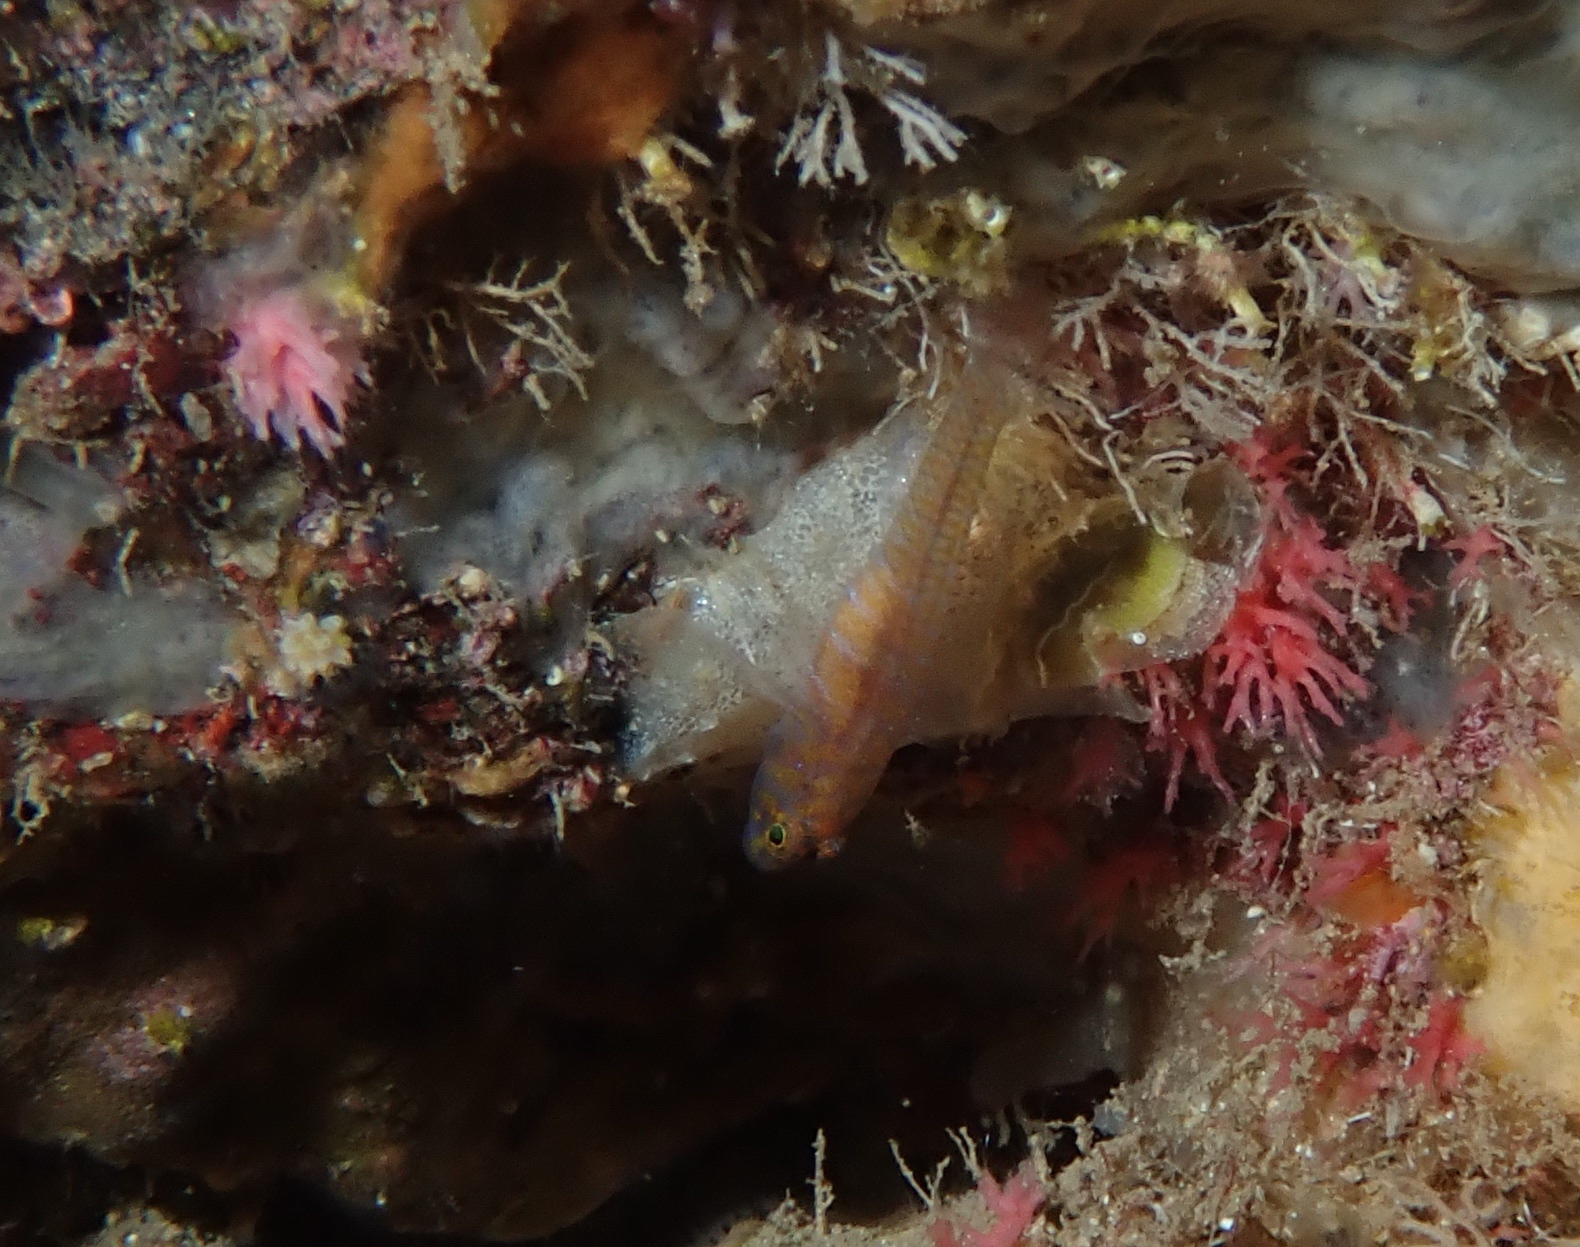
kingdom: Animalia
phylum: Chordata
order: Perciformes
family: Gobiidae
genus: Corcyrogobius
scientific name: Corcyrogobius liechtensteini
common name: Liechtenstein's goby
